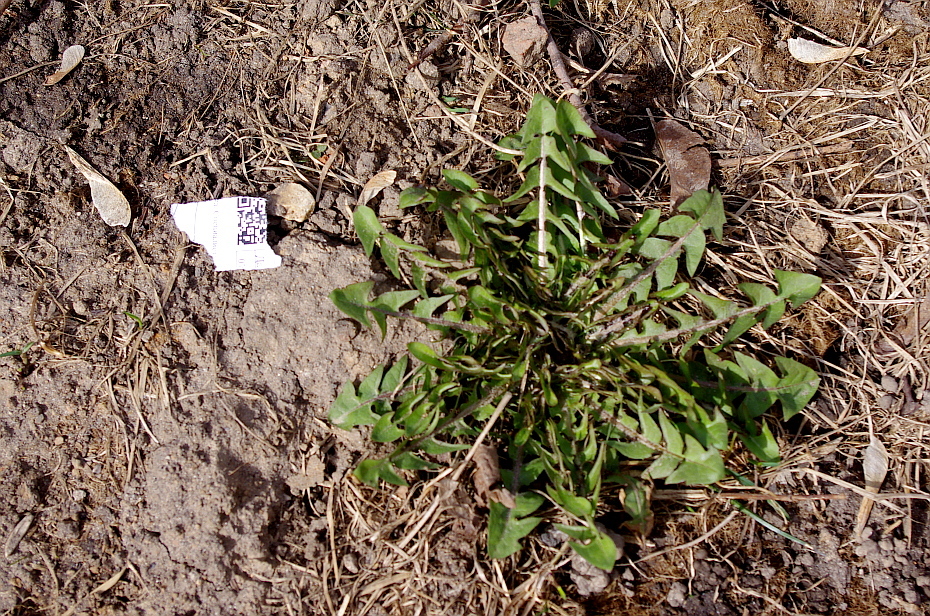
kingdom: Plantae
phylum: Tracheophyta
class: Magnoliopsida
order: Asterales
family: Asteraceae
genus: Taraxacum
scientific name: Taraxacum officinale
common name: Common dandelion
